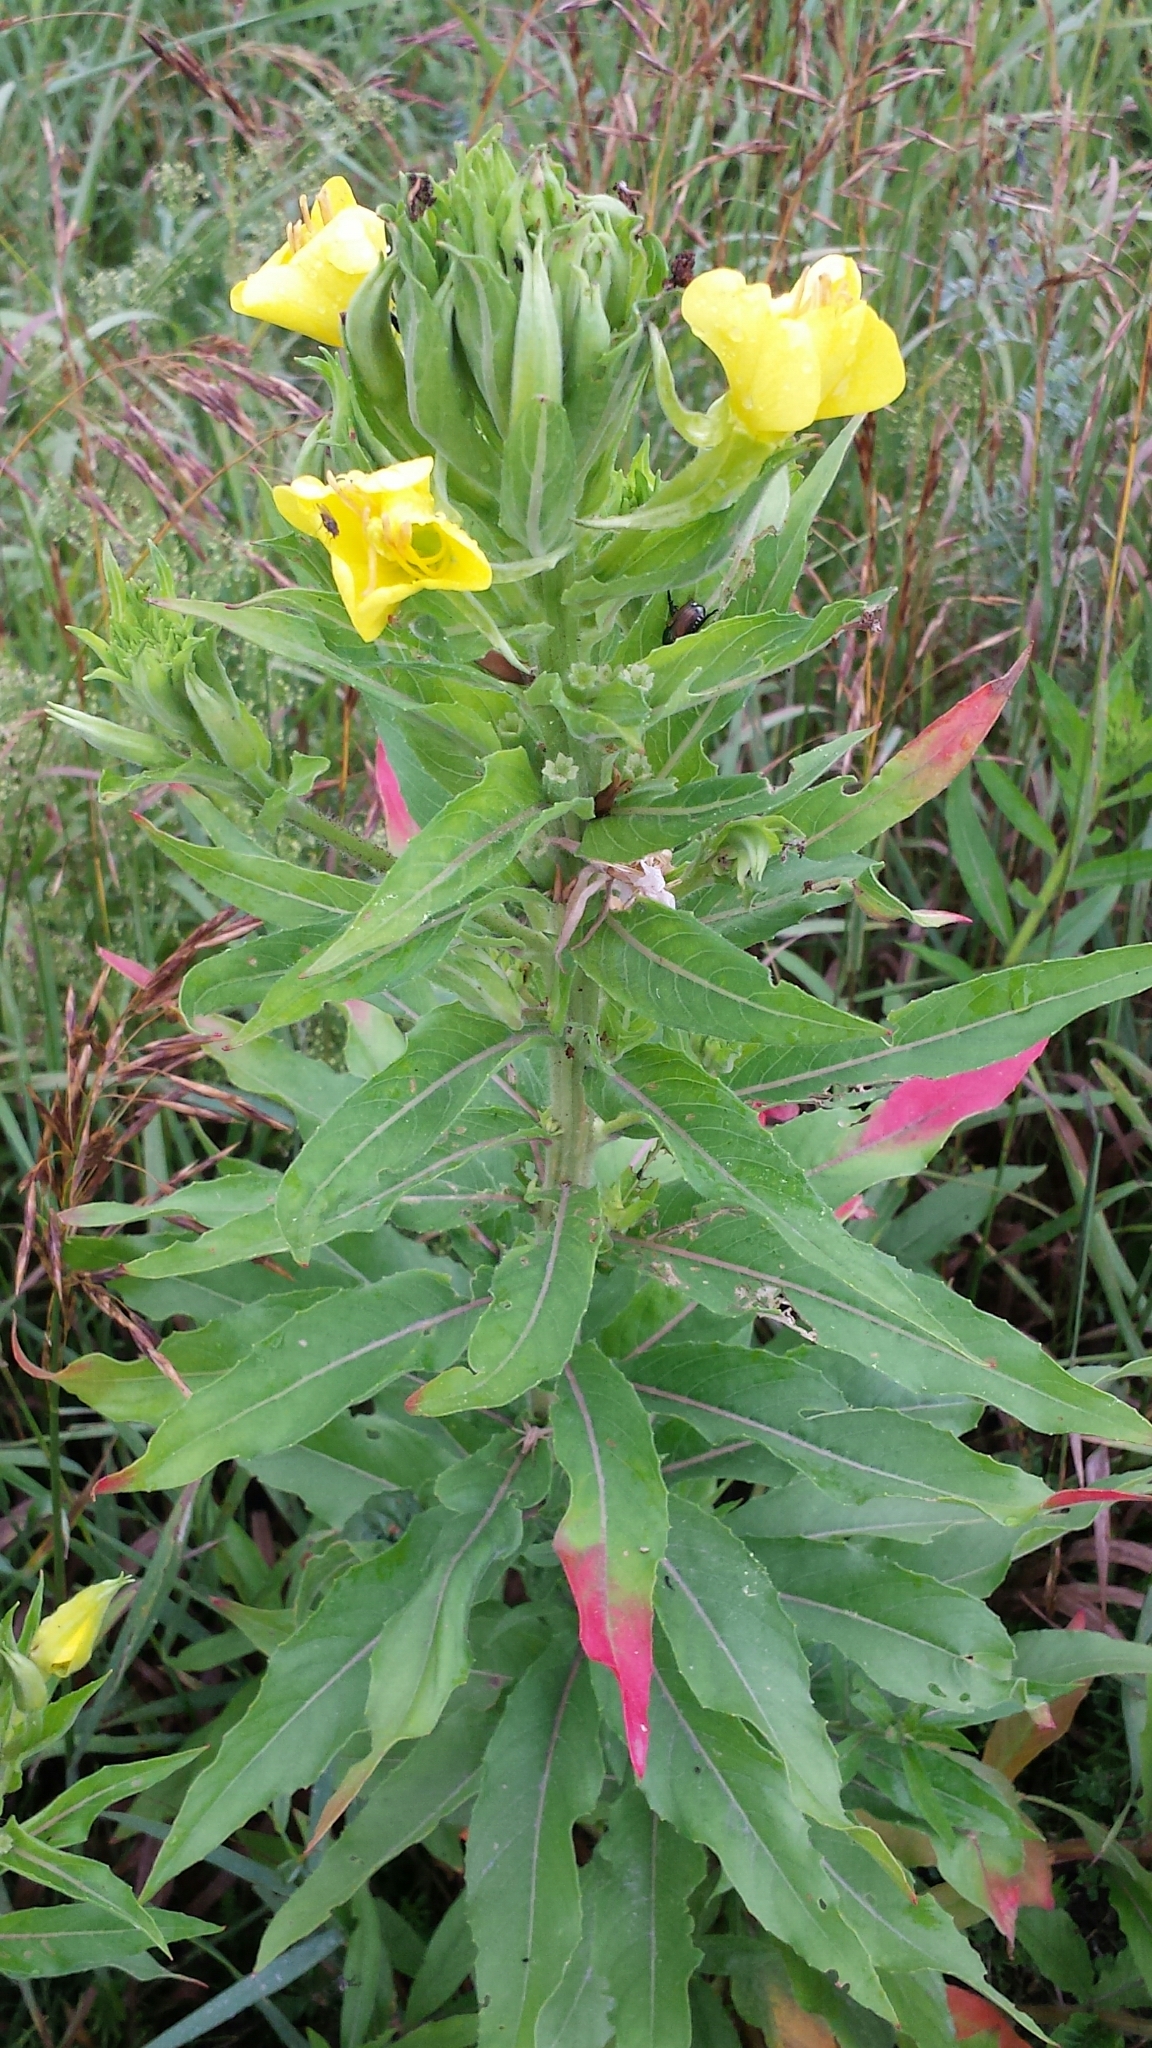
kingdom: Plantae
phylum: Tracheophyta
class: Magnoliopsida
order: Myrtales
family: Onagraceae
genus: Oenothera
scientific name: Oenothera biennis
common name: Common evening-primrose
